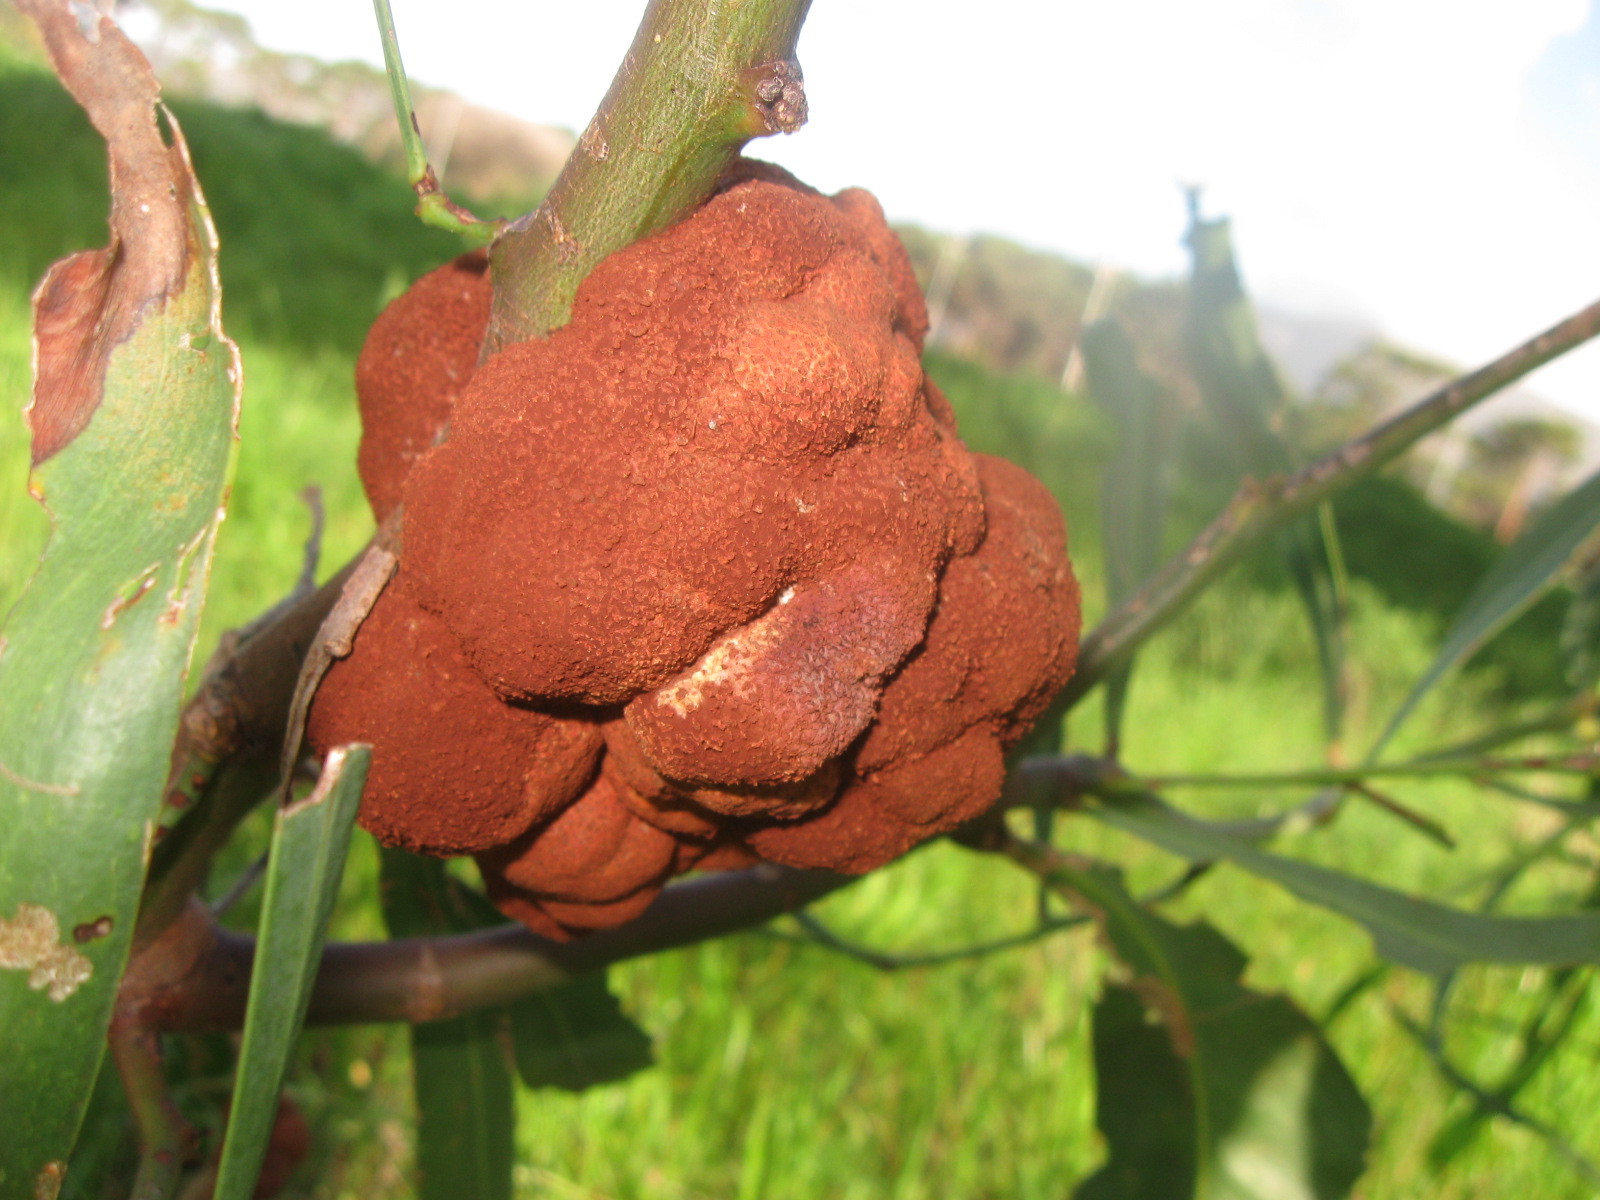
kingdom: Fungi
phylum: Basidiomycota
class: Pucciniomycetes
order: Pucciniales
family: Uromycladiaceae
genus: Uromycladium
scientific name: Uromycladium morrisii
